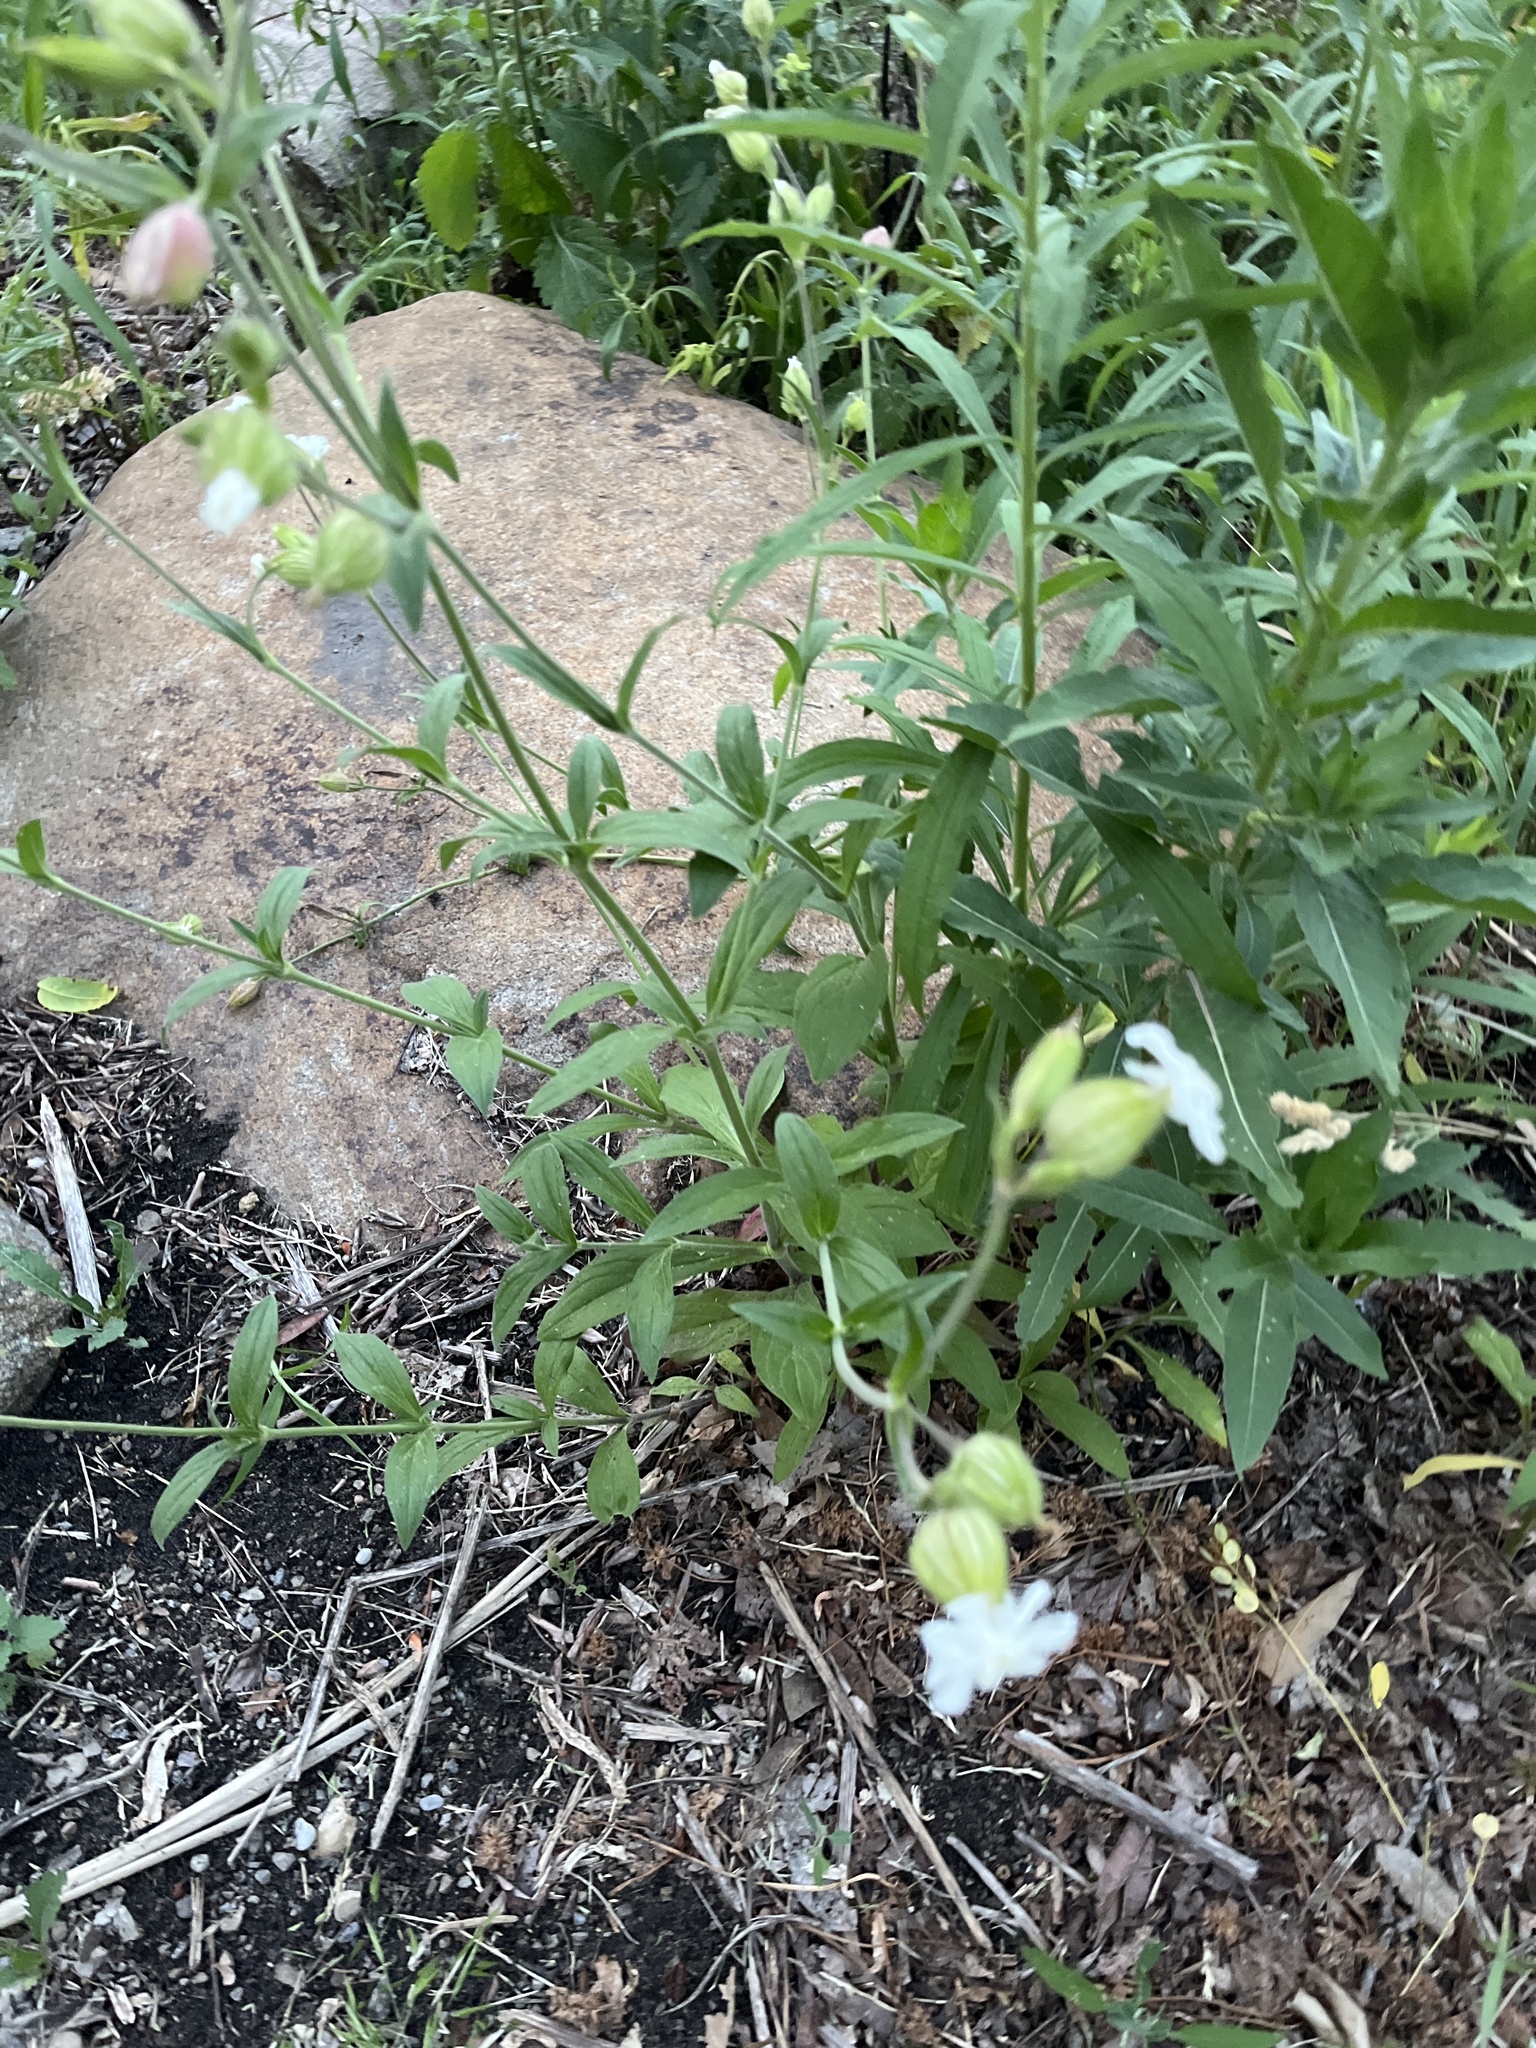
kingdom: Plantae
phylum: Tracheophyta
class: Magnoliopsida
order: Caryophyllales
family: Caryophyllaceae
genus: Silene
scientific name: Silene latifolia
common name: White campion
